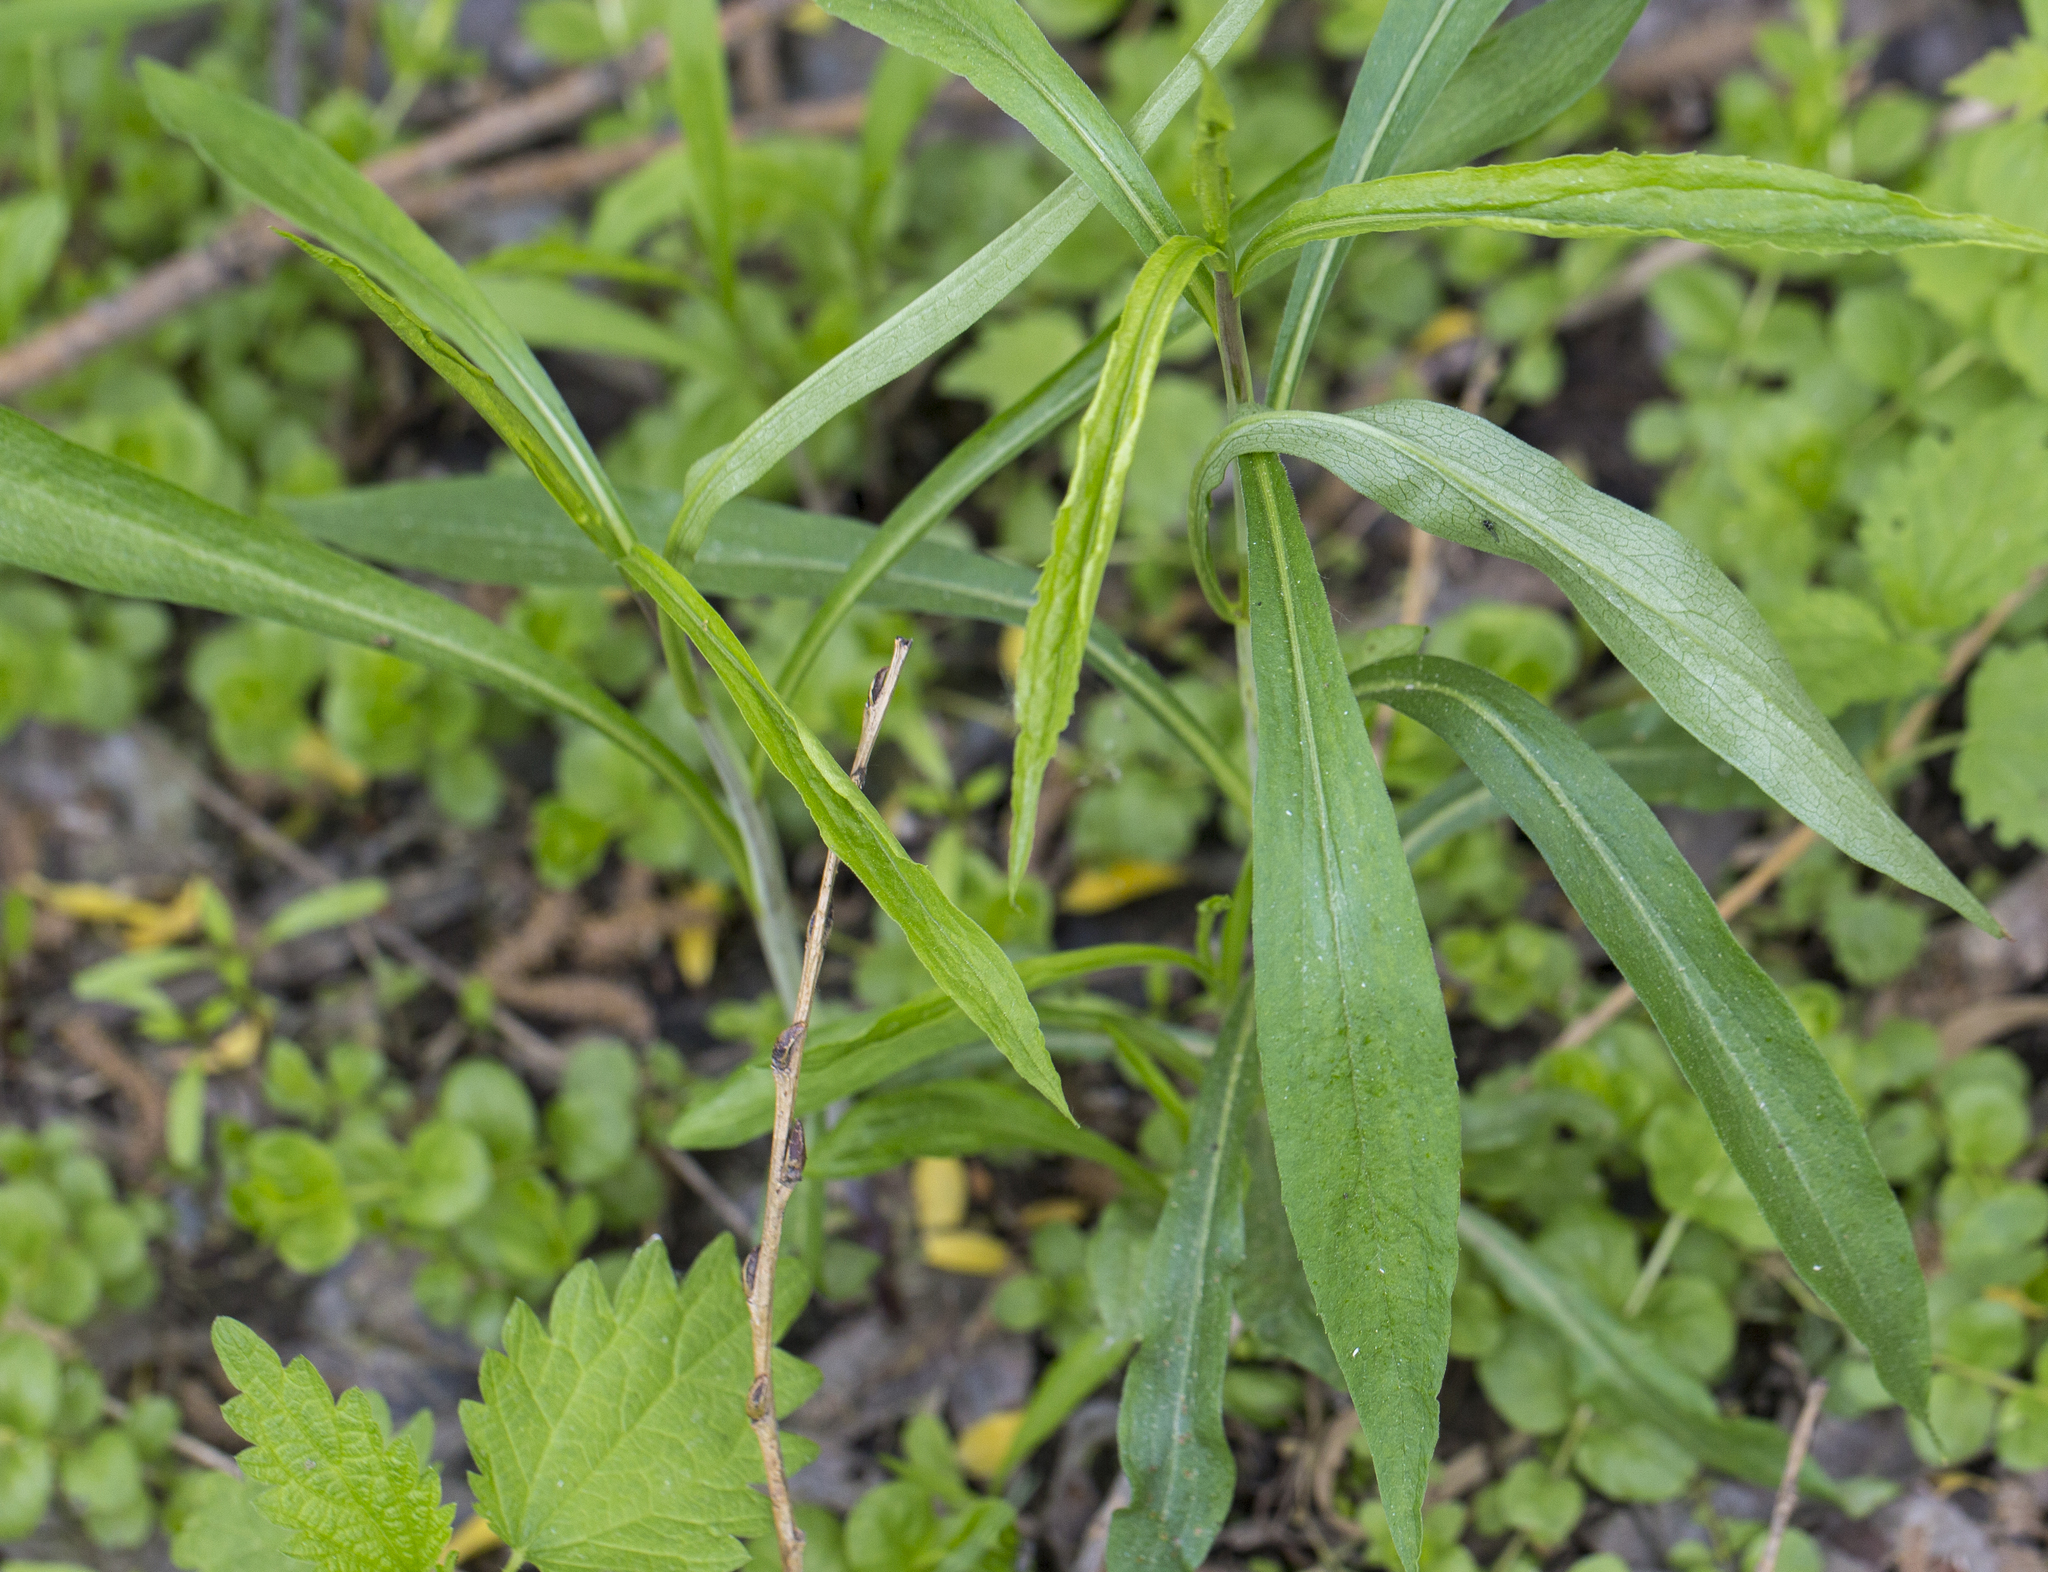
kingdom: Plantae
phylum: Tracheophyta
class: Magnoliopsida
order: Asterales
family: Asteraceae
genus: Solidago
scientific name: Solidago gigantea
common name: Giant goldenrod
